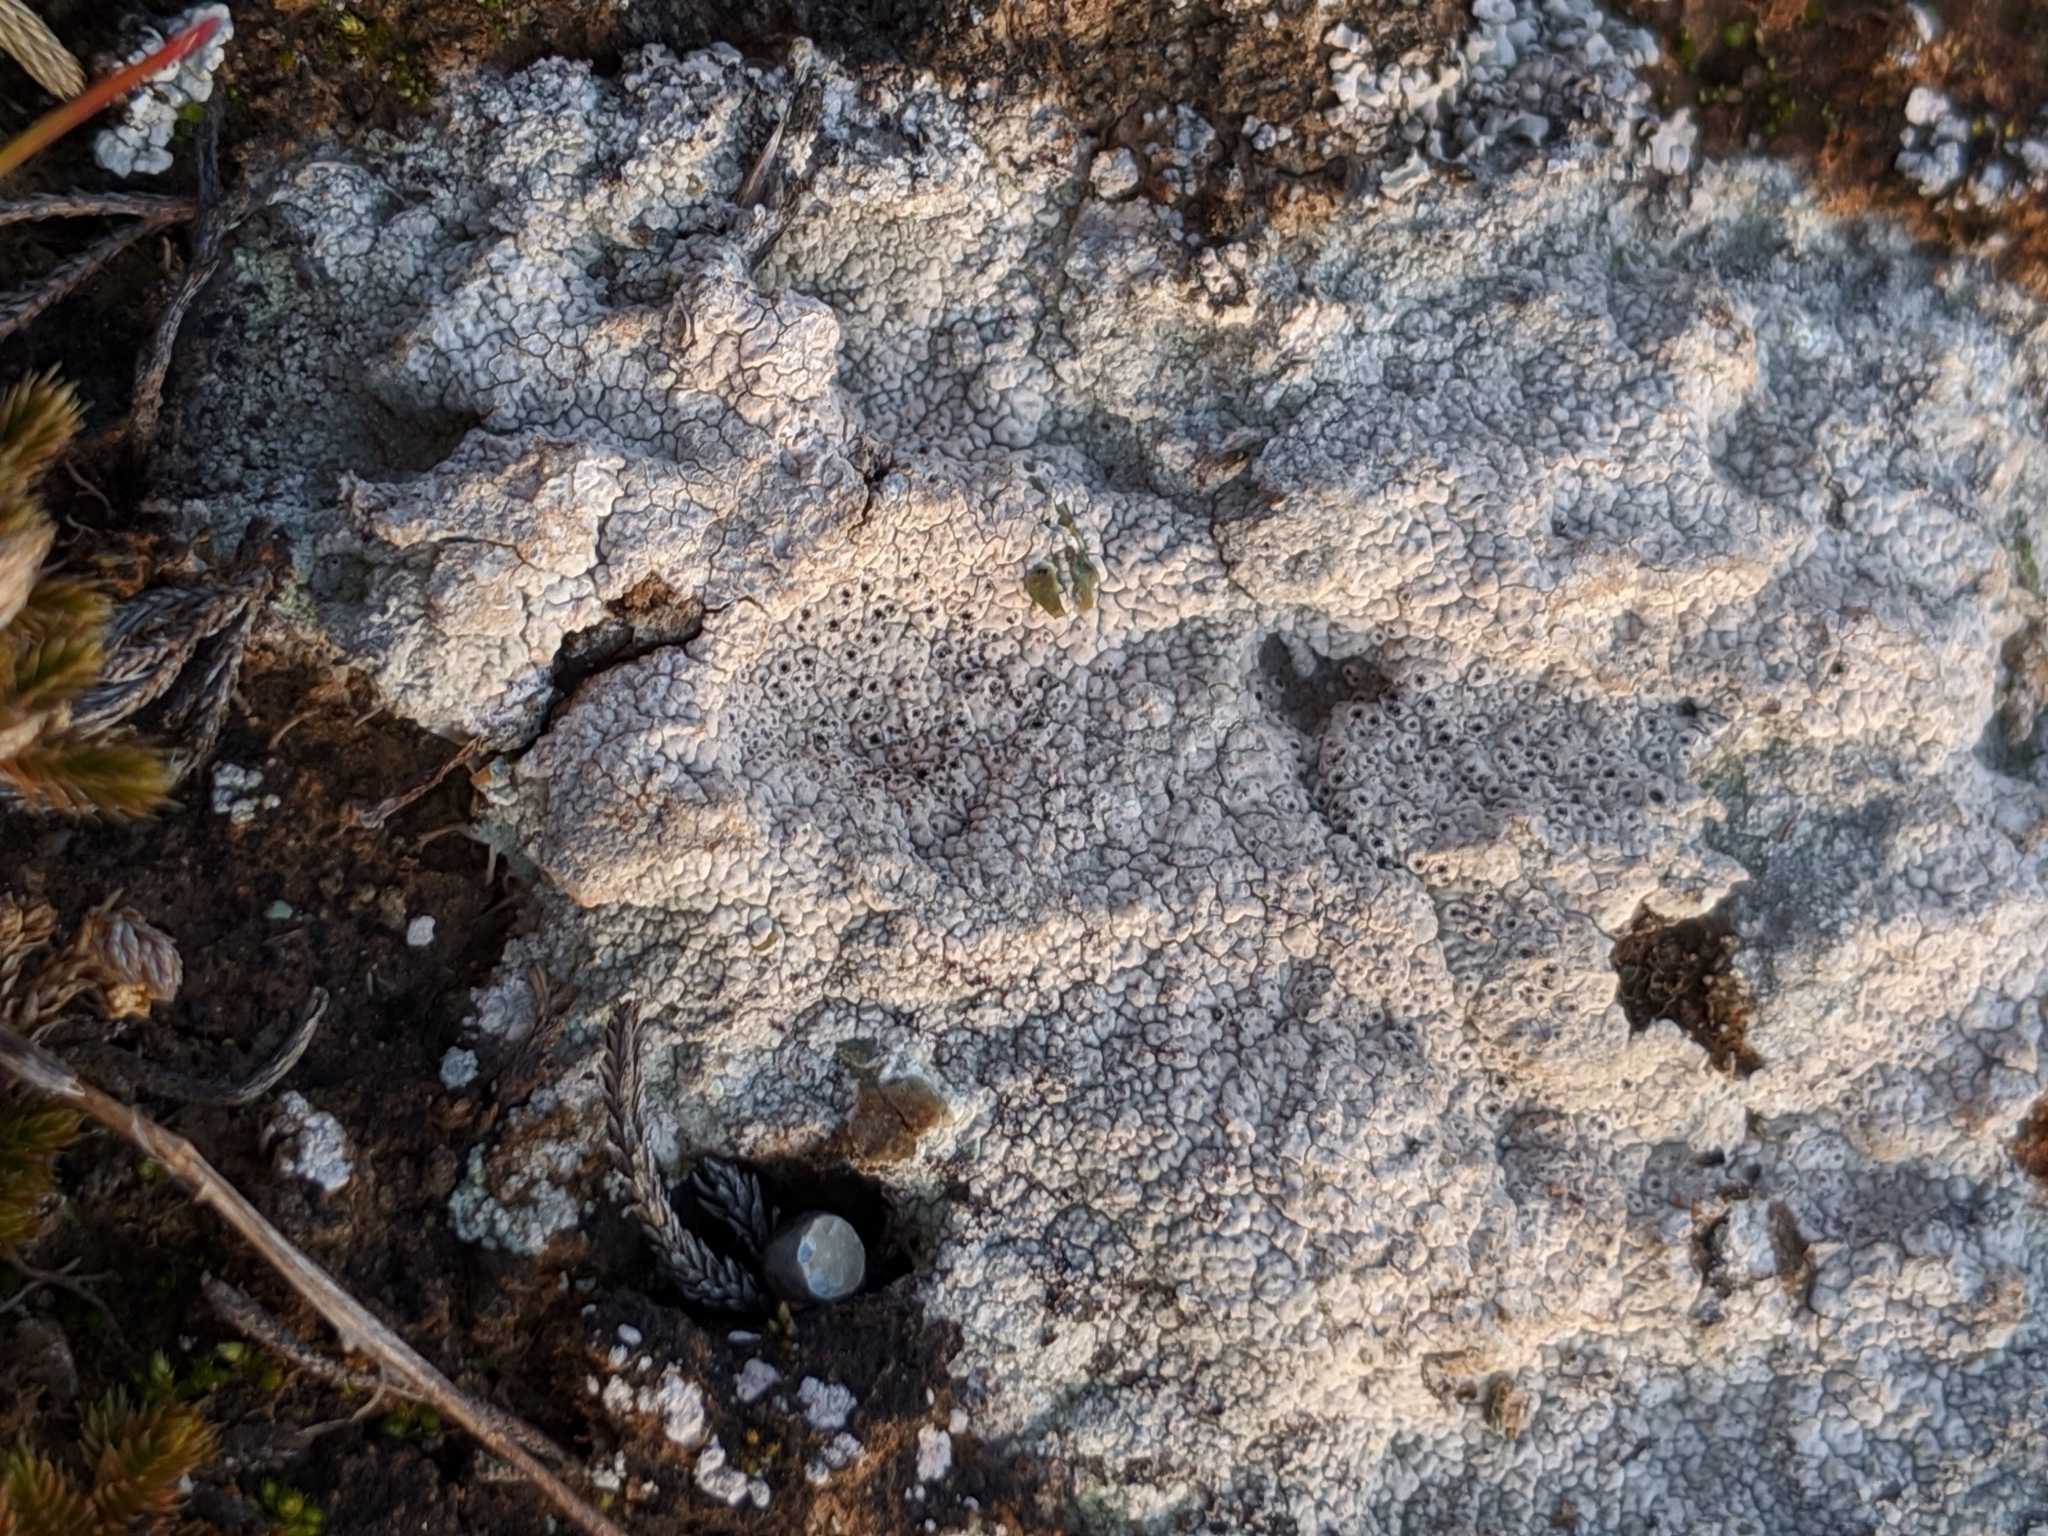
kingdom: Fungi
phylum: Ascomycota
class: Lecanoromycetes
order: Ostropales
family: Graphidaceae
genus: Diploschistes
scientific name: Diploschistes muscorum
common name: Cowpie lichen
